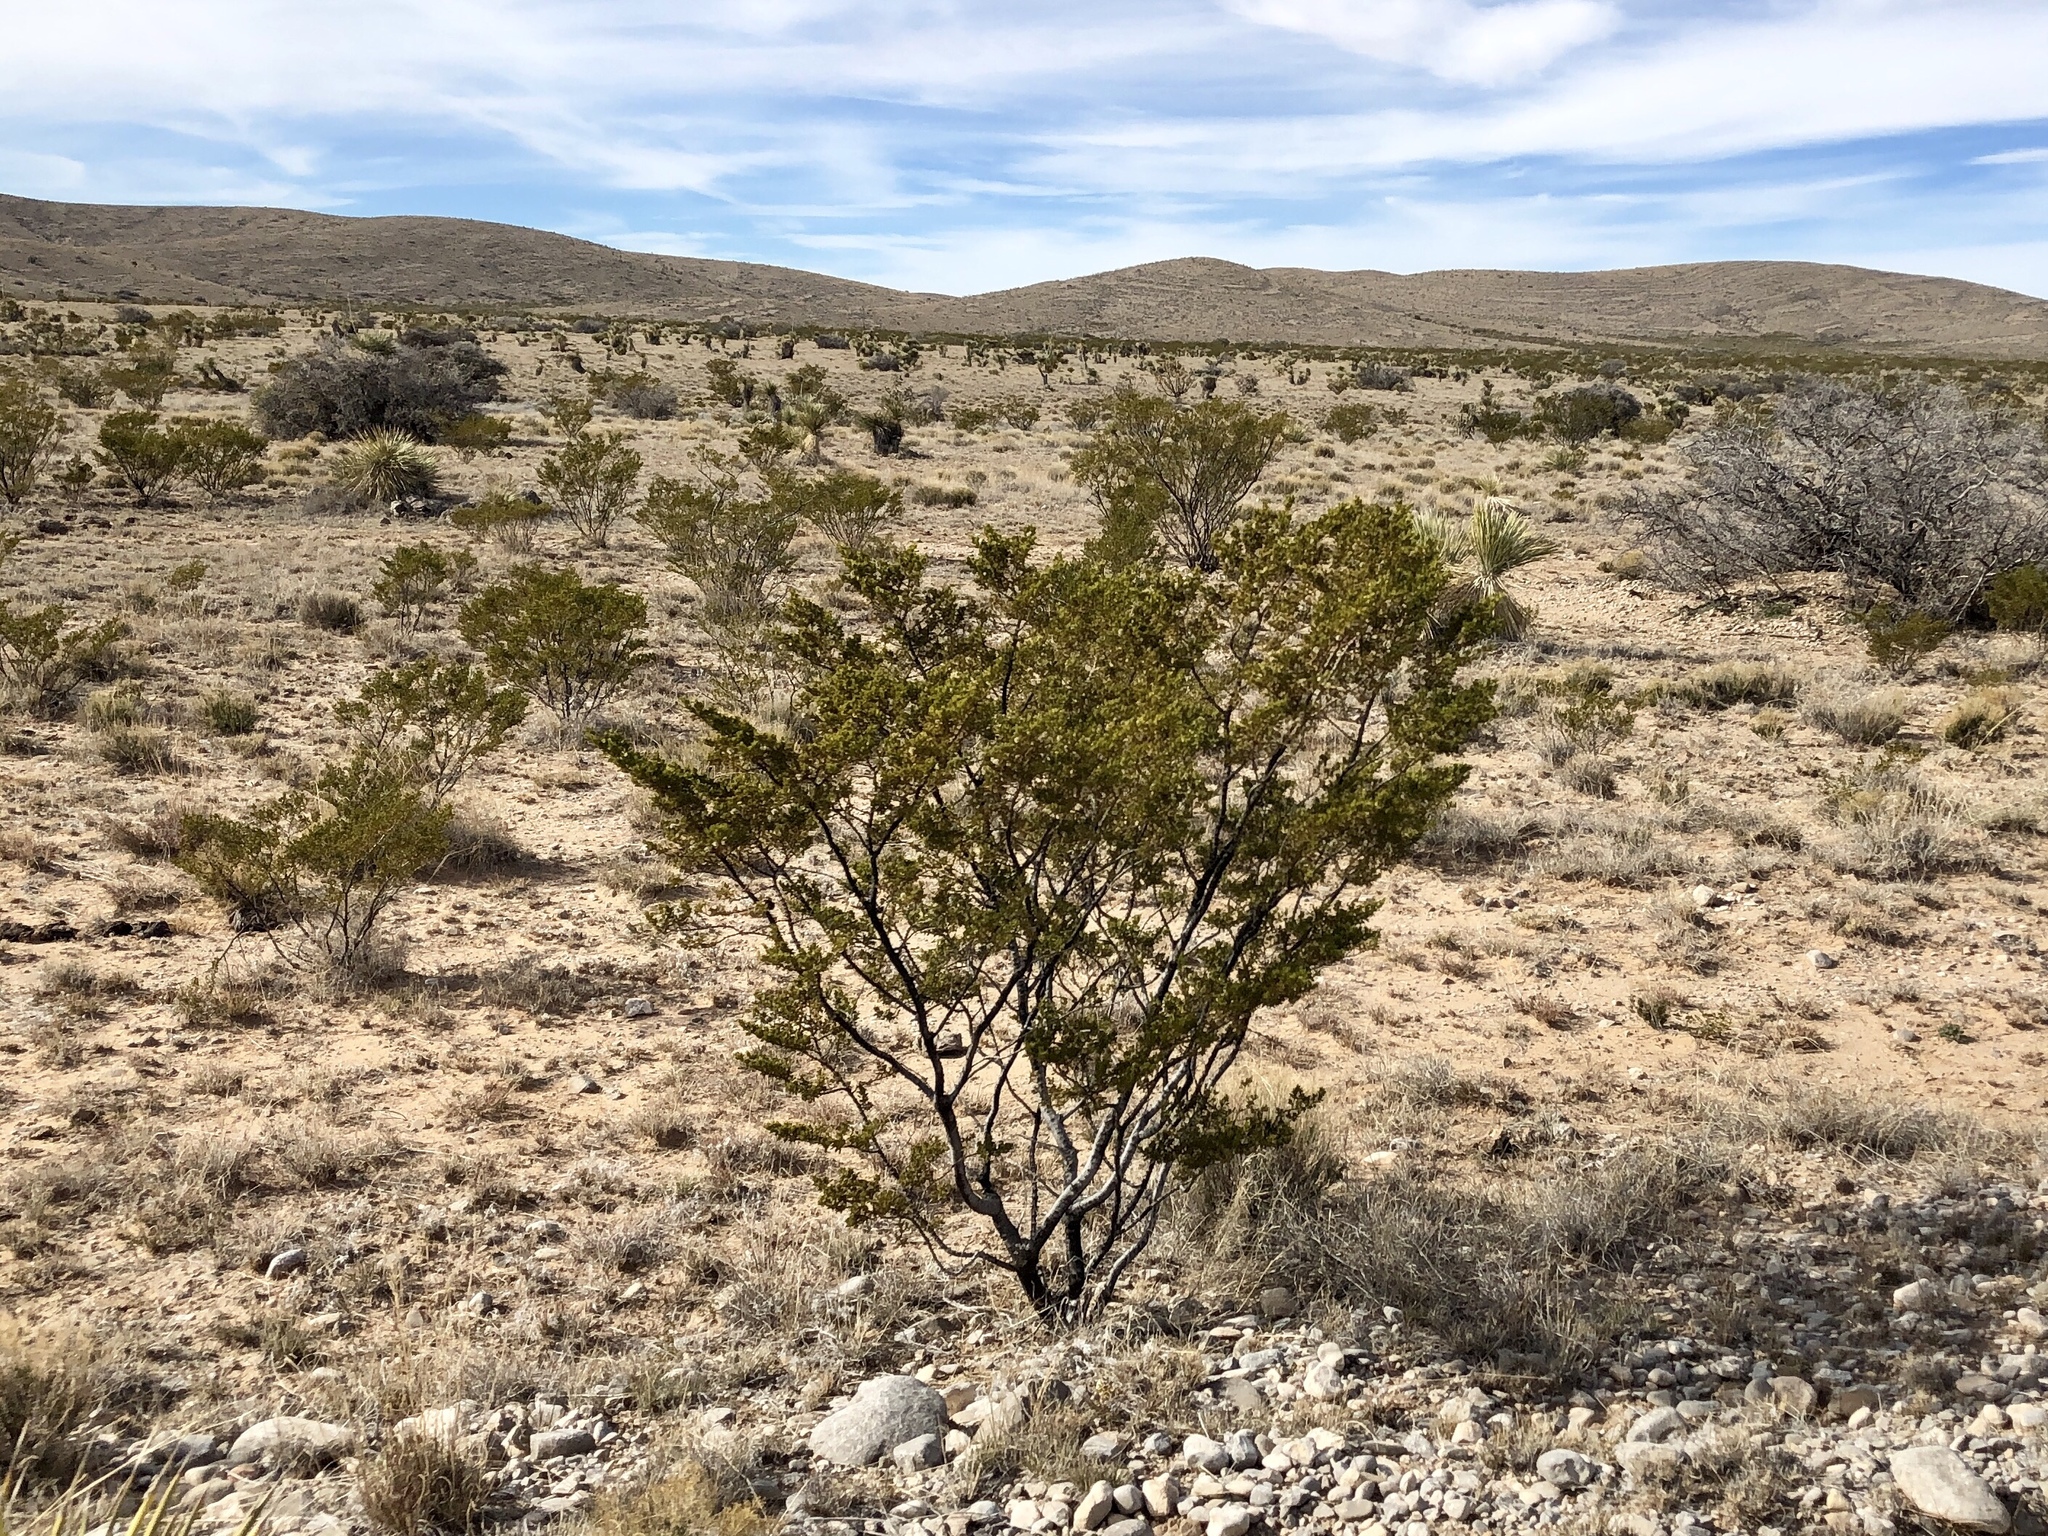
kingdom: Plantae
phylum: Tracheophyta
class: Magnoliopsida
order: Zygophyllales
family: Zygophyllaceae
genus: Larrea
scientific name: Larrea tridentata
